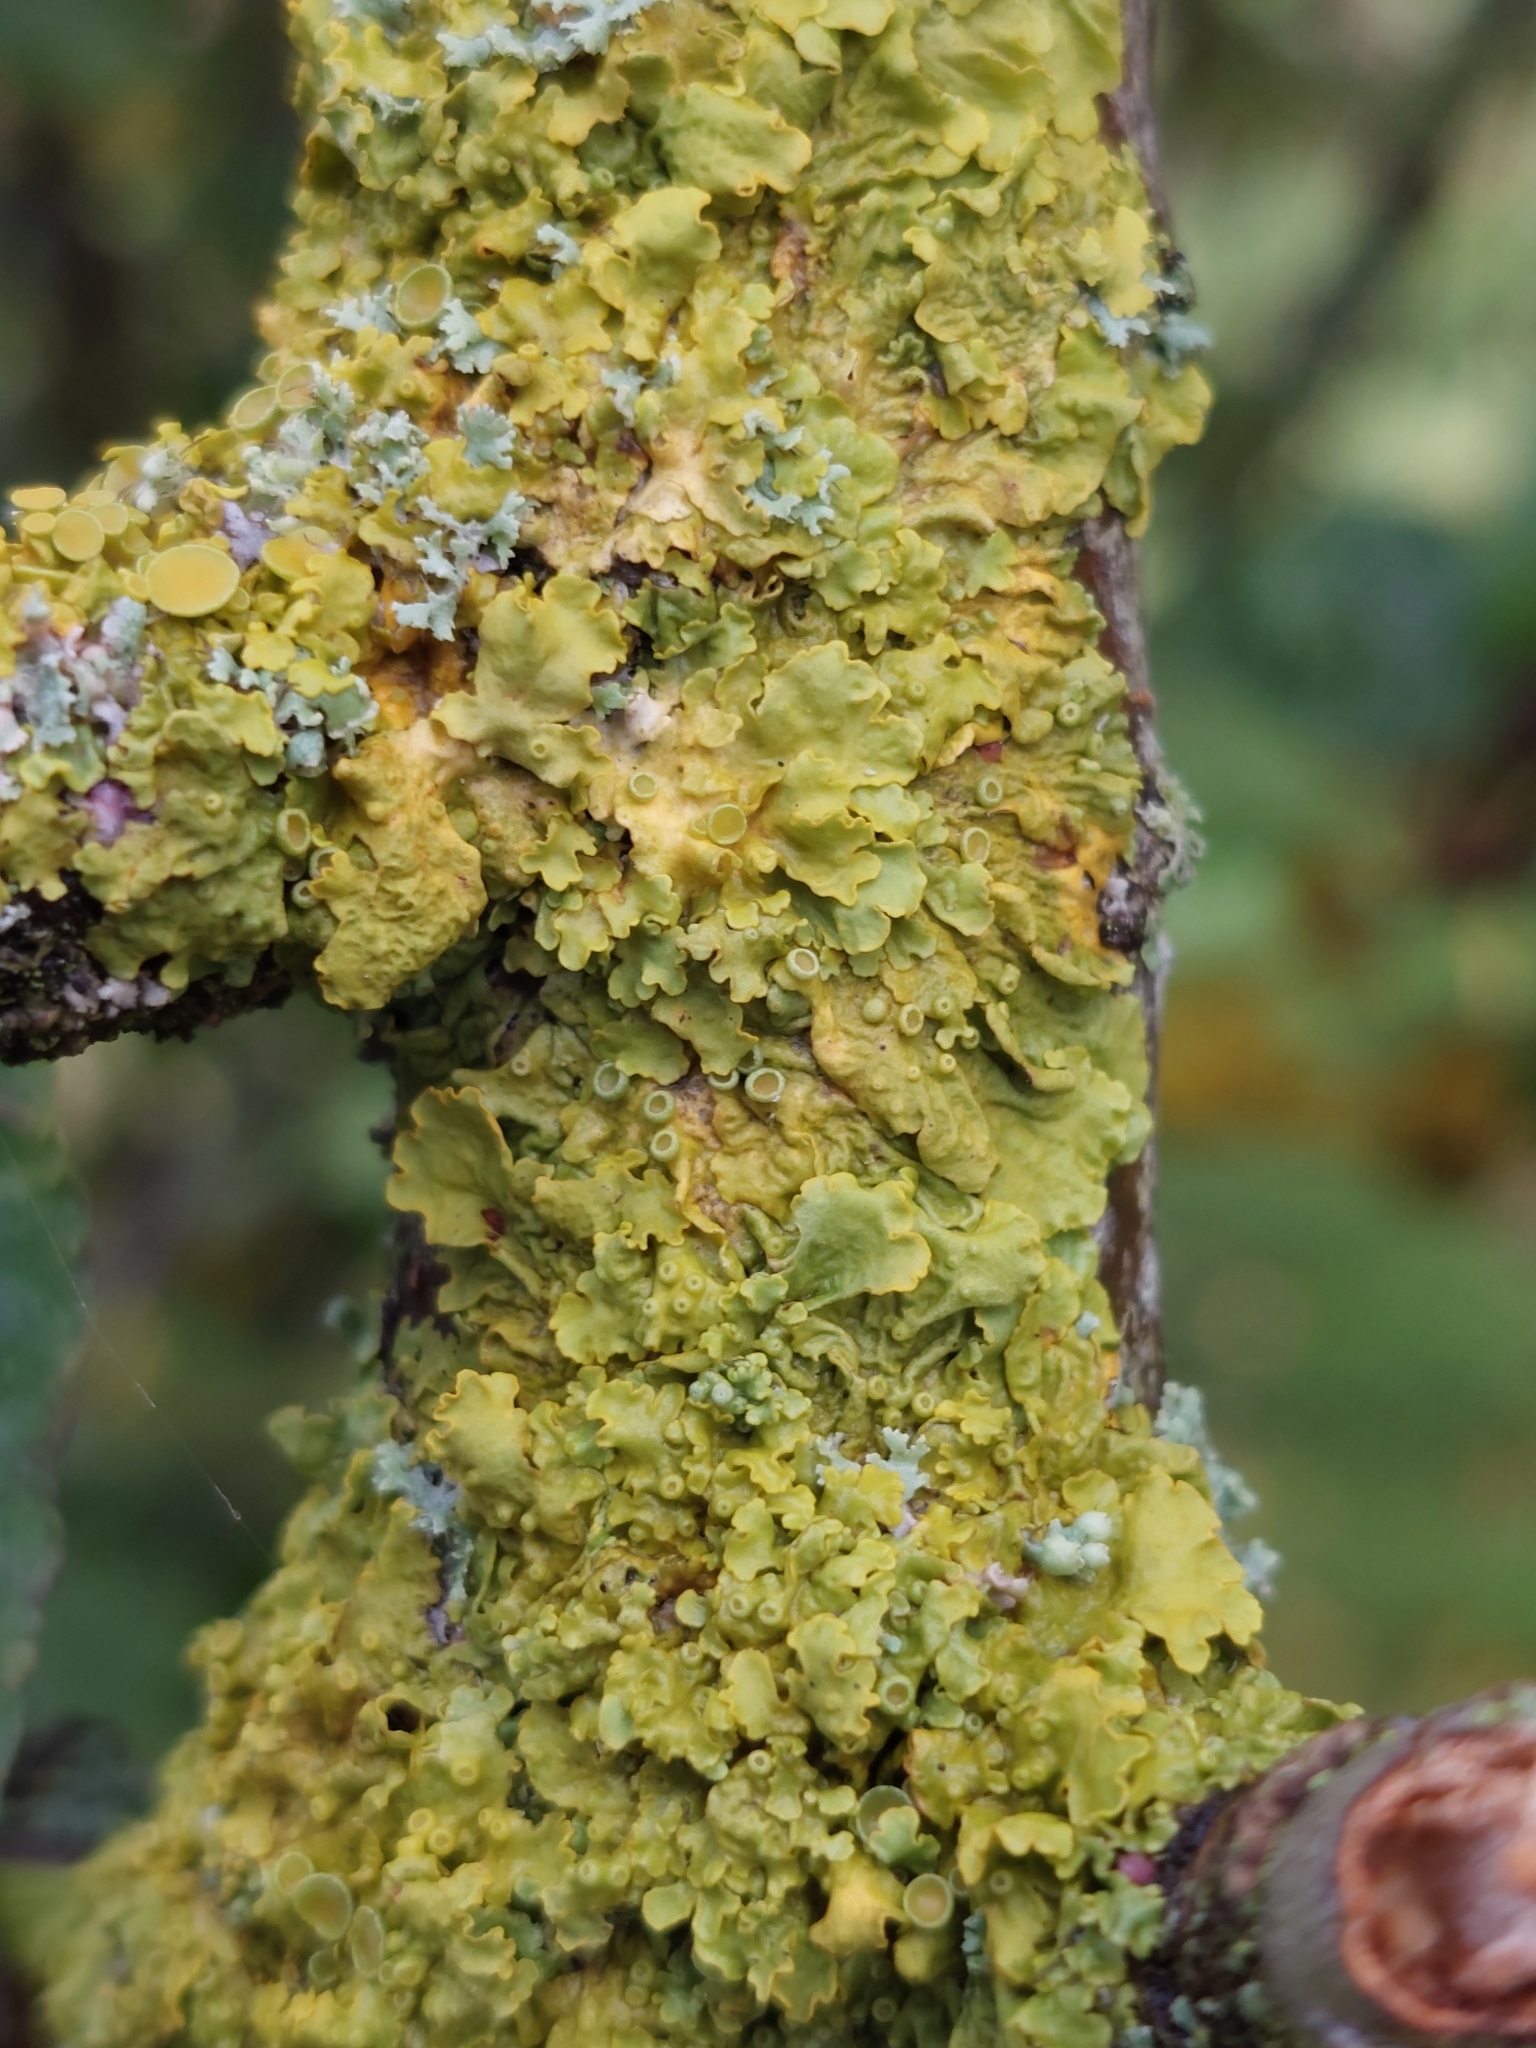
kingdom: Fungi
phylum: Ascomycota
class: Lecanoromycetes
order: Teloschistales
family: Teloschistaceae
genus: Xanthoria
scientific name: Xanthoria parietina
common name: Common orange lichen
